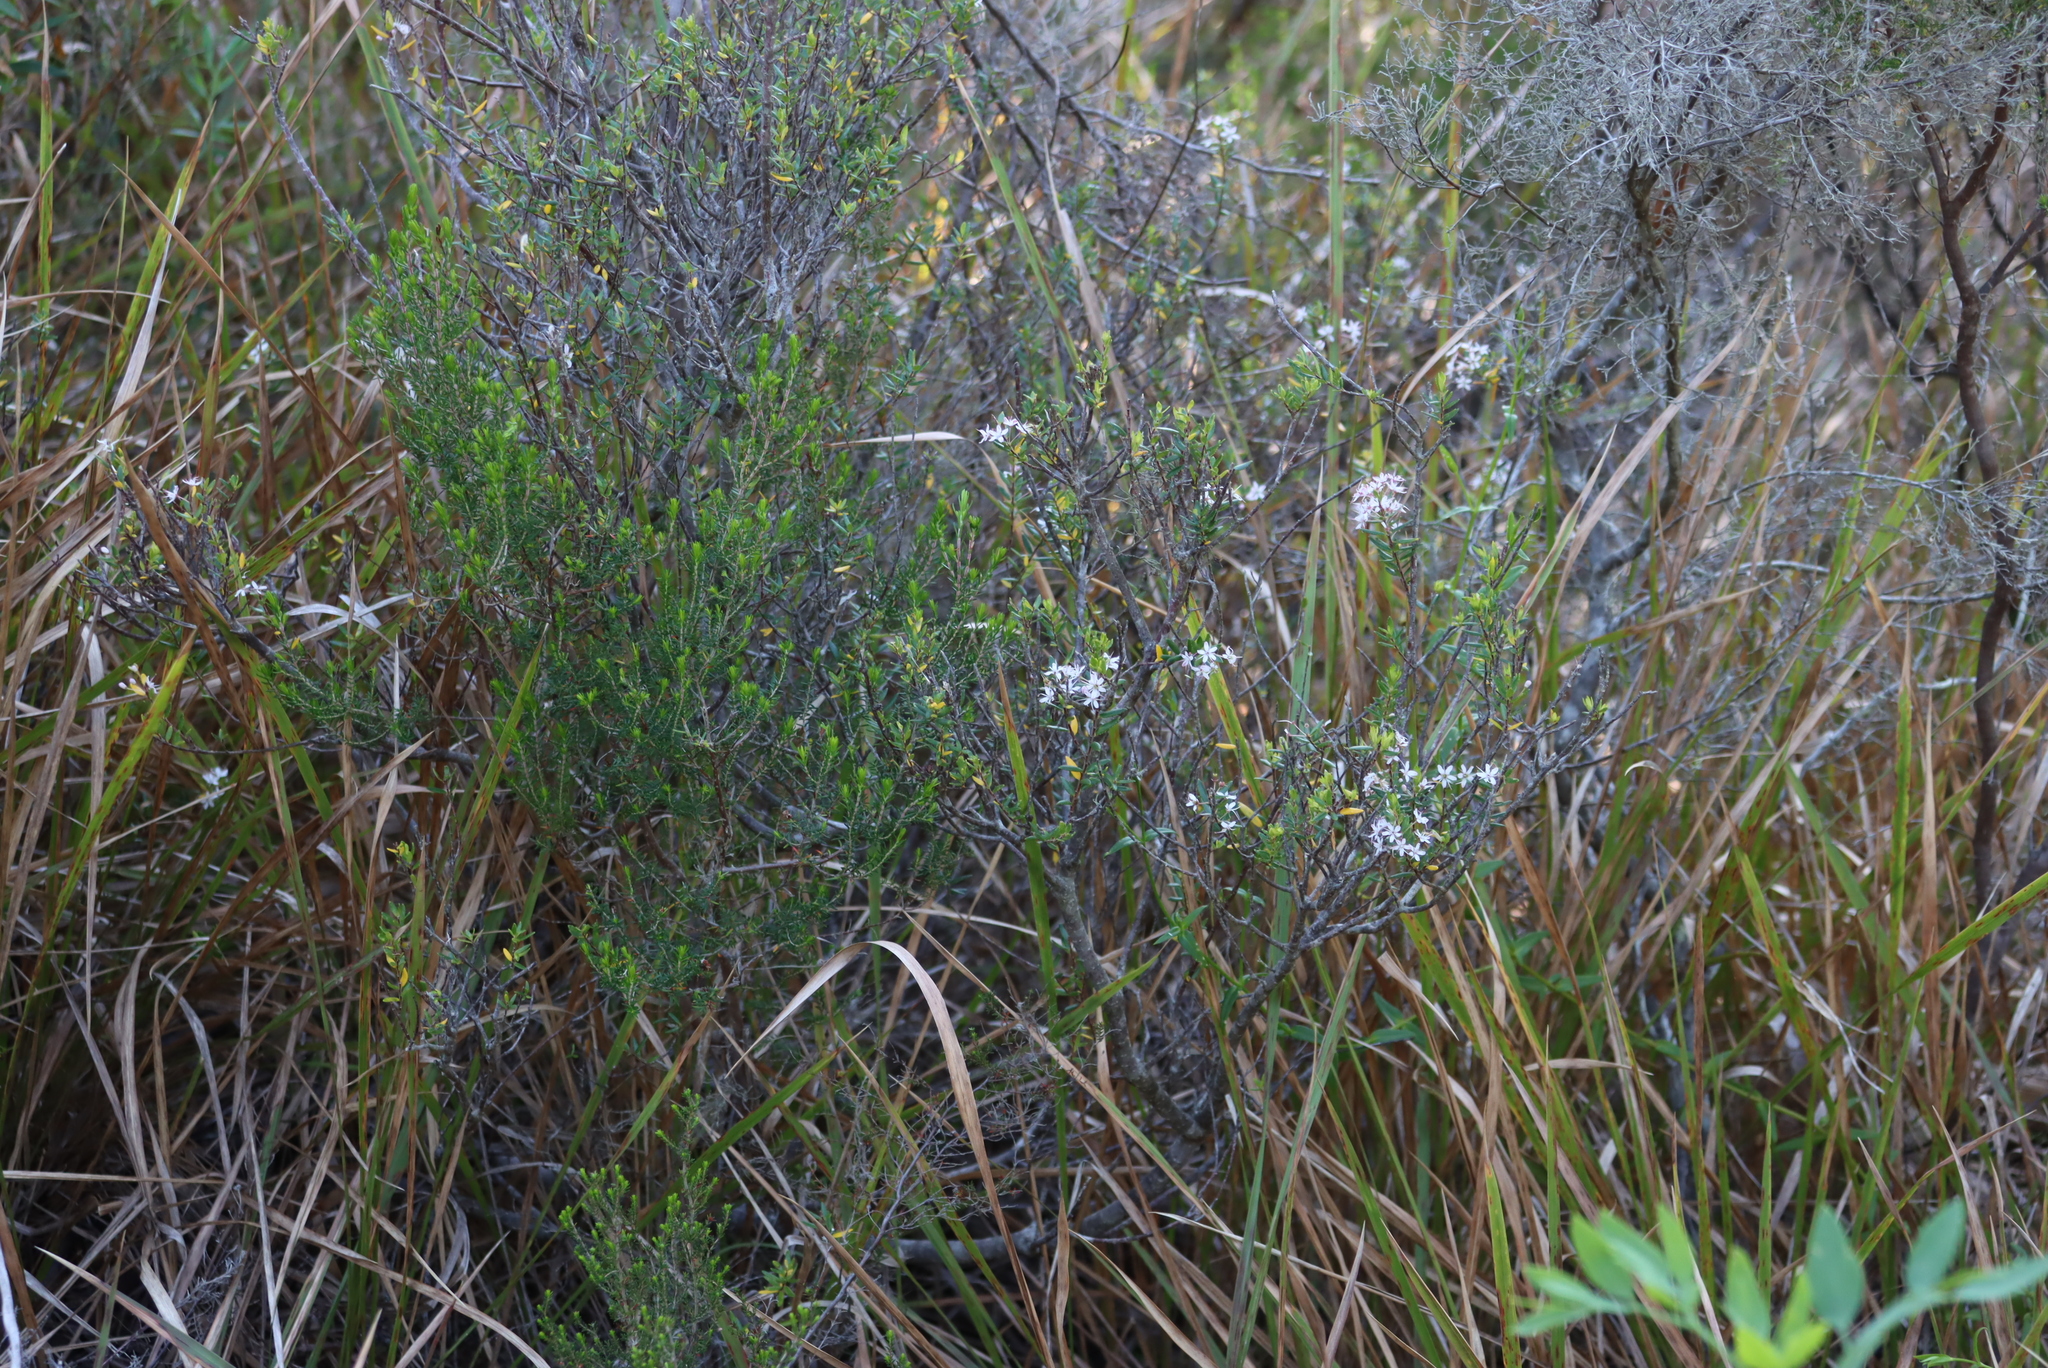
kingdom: Plantae
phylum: Tracheophyta
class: Magnoliopsida
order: Sapindales
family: Rutaceae
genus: Agathosma
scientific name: Agathosma ovata
